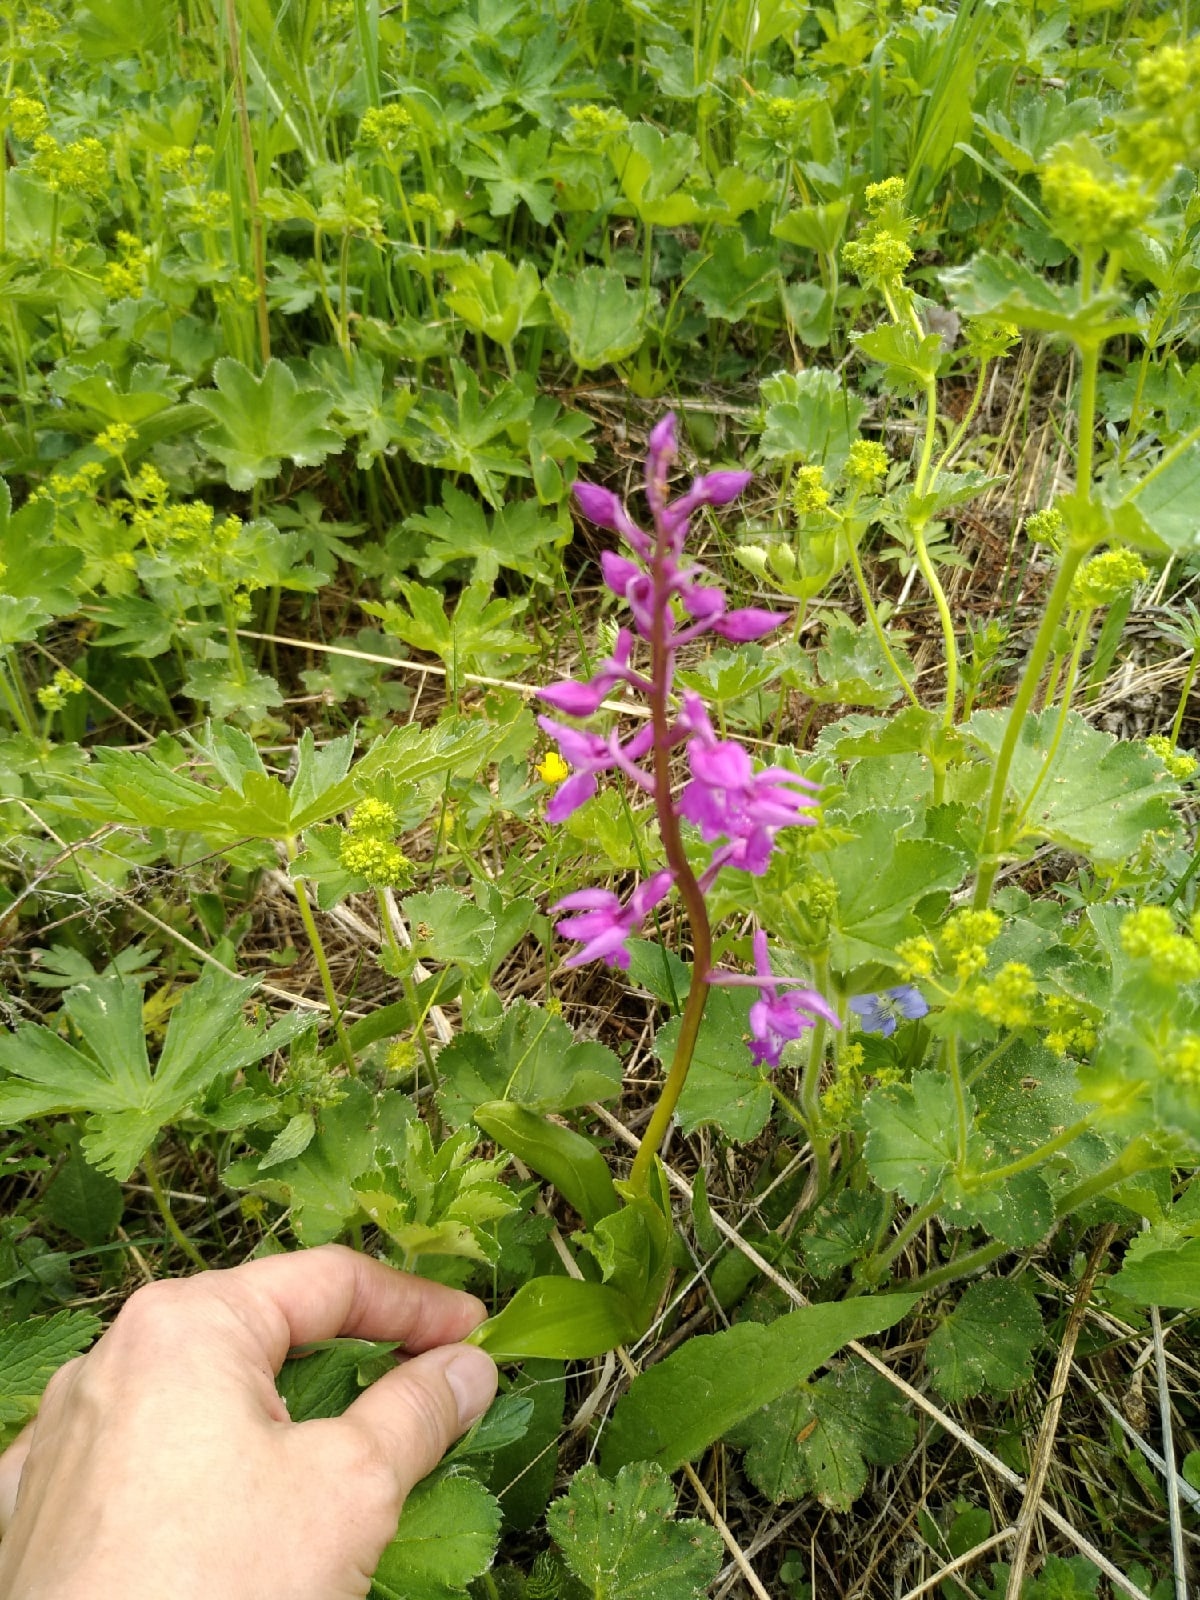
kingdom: Plantae
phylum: Tracheophyta
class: Liliopsida
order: Asparagales
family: Orchidaceae
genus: Orchis
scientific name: Orchis mascula
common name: Early-purple orchid
